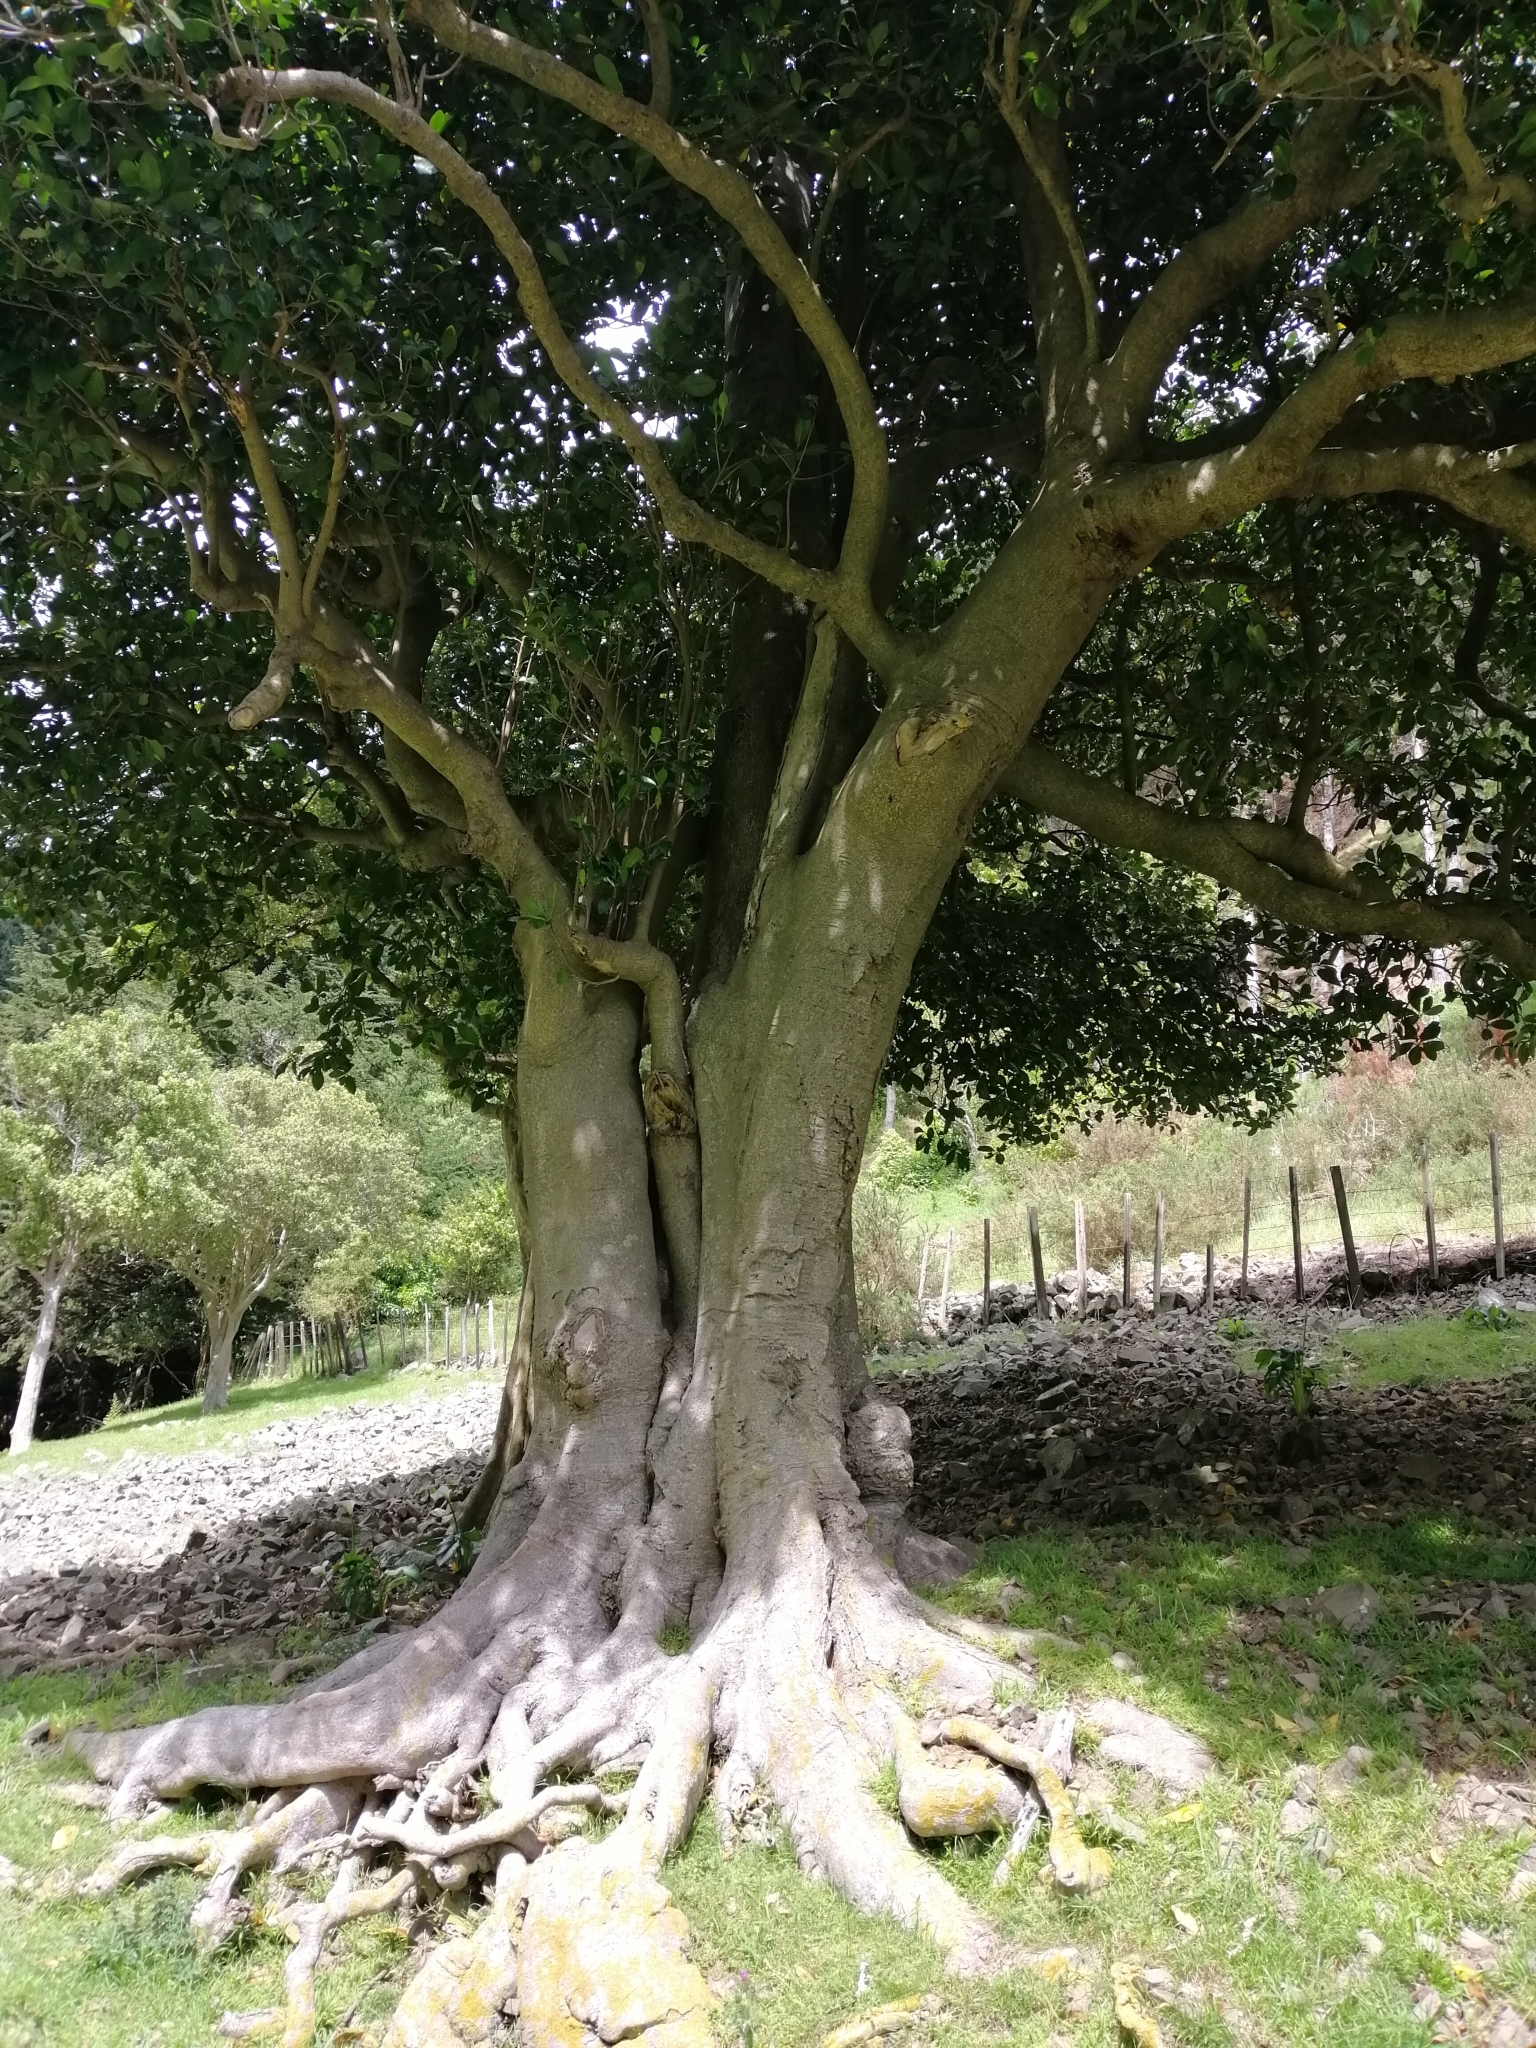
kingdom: Plantae
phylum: Tracheophyta
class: Magnoliopsida
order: Cucurbitales
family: Corynocarpaceae
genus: Corynocarpus
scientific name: Corynocarpus laevigatus
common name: New zealand laurel
